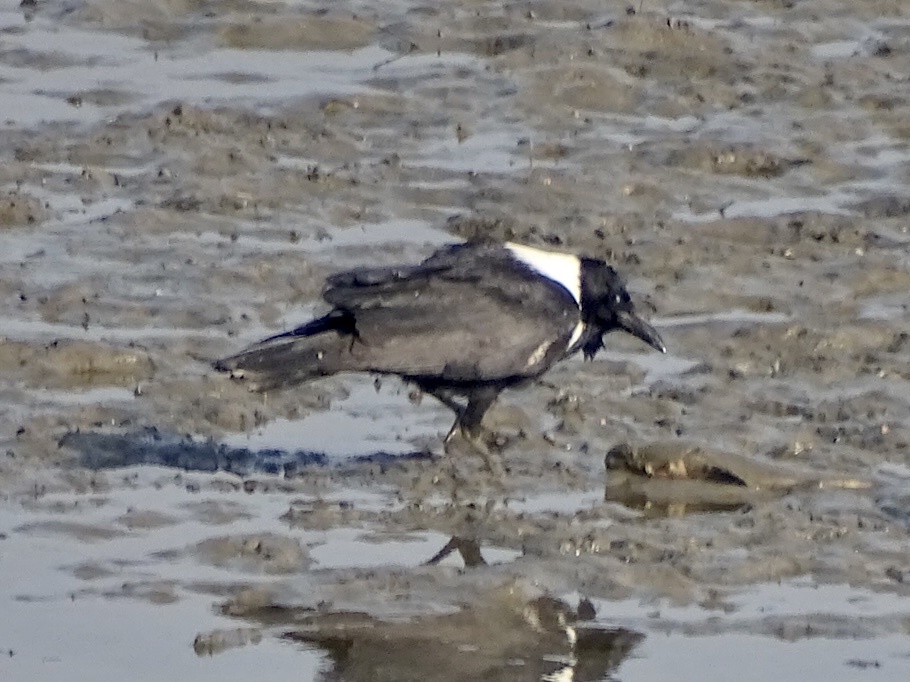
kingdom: Animalia
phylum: Chordata
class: Aves
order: Passeriformes
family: Corvidae
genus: Corvus
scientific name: Corvus pectoralis
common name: Collared crow
